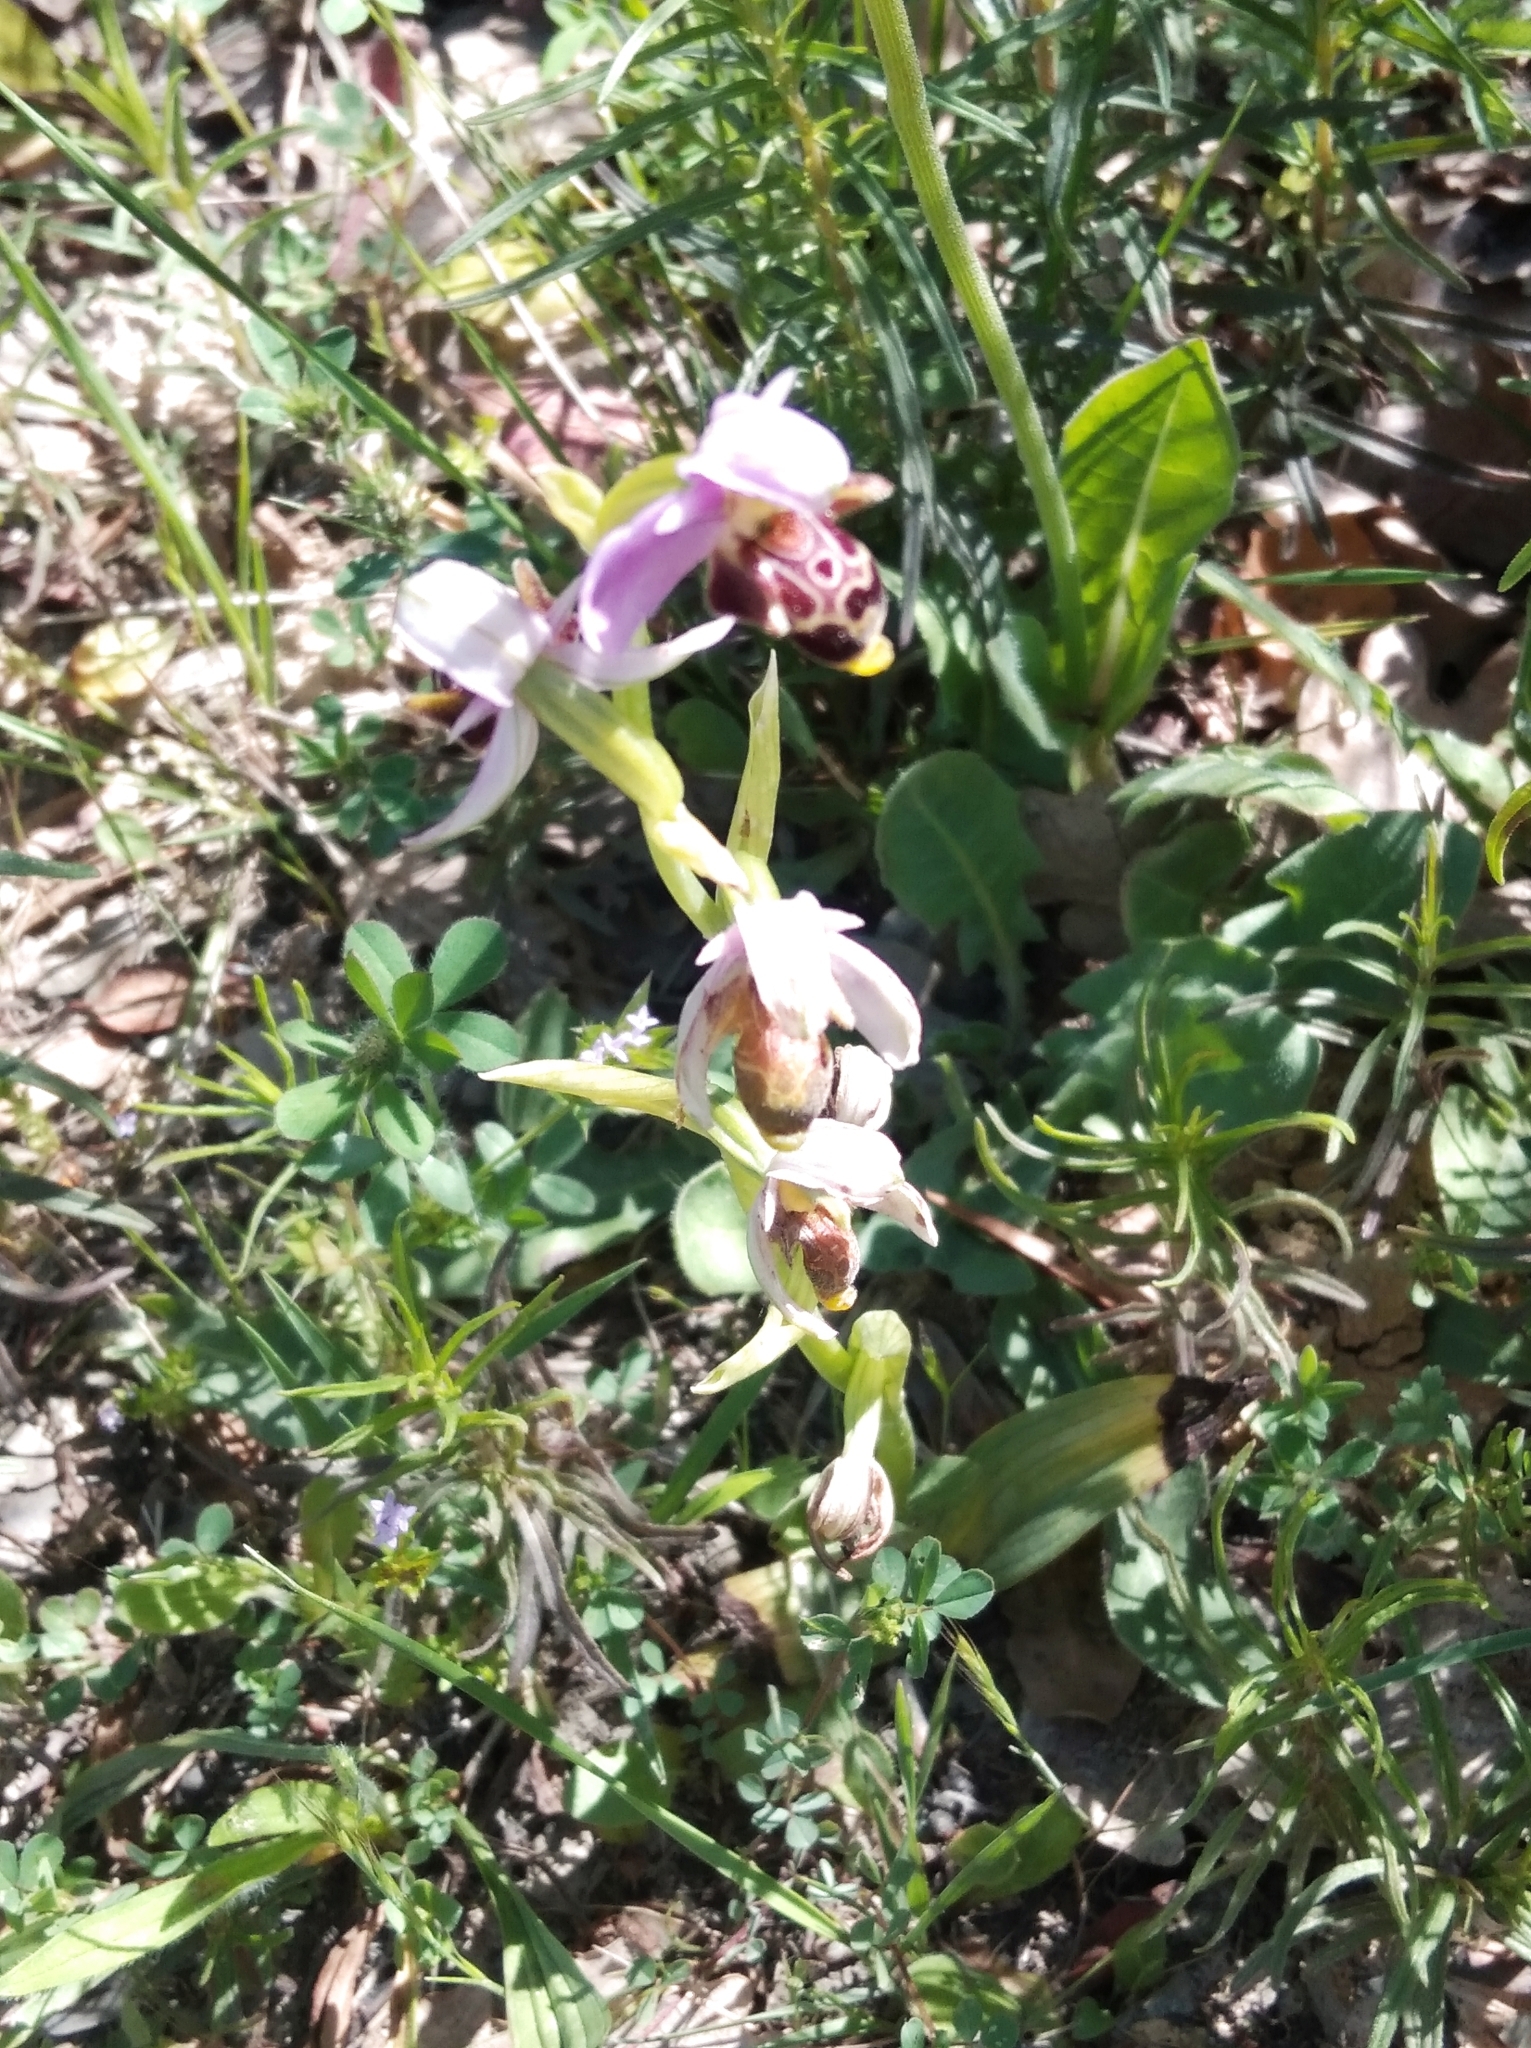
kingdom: Plantae
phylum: Tracheophyta
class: Liliopsida
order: Asparagales
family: Orchidaceae
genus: Ophrys
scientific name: Ophrys scolopax
